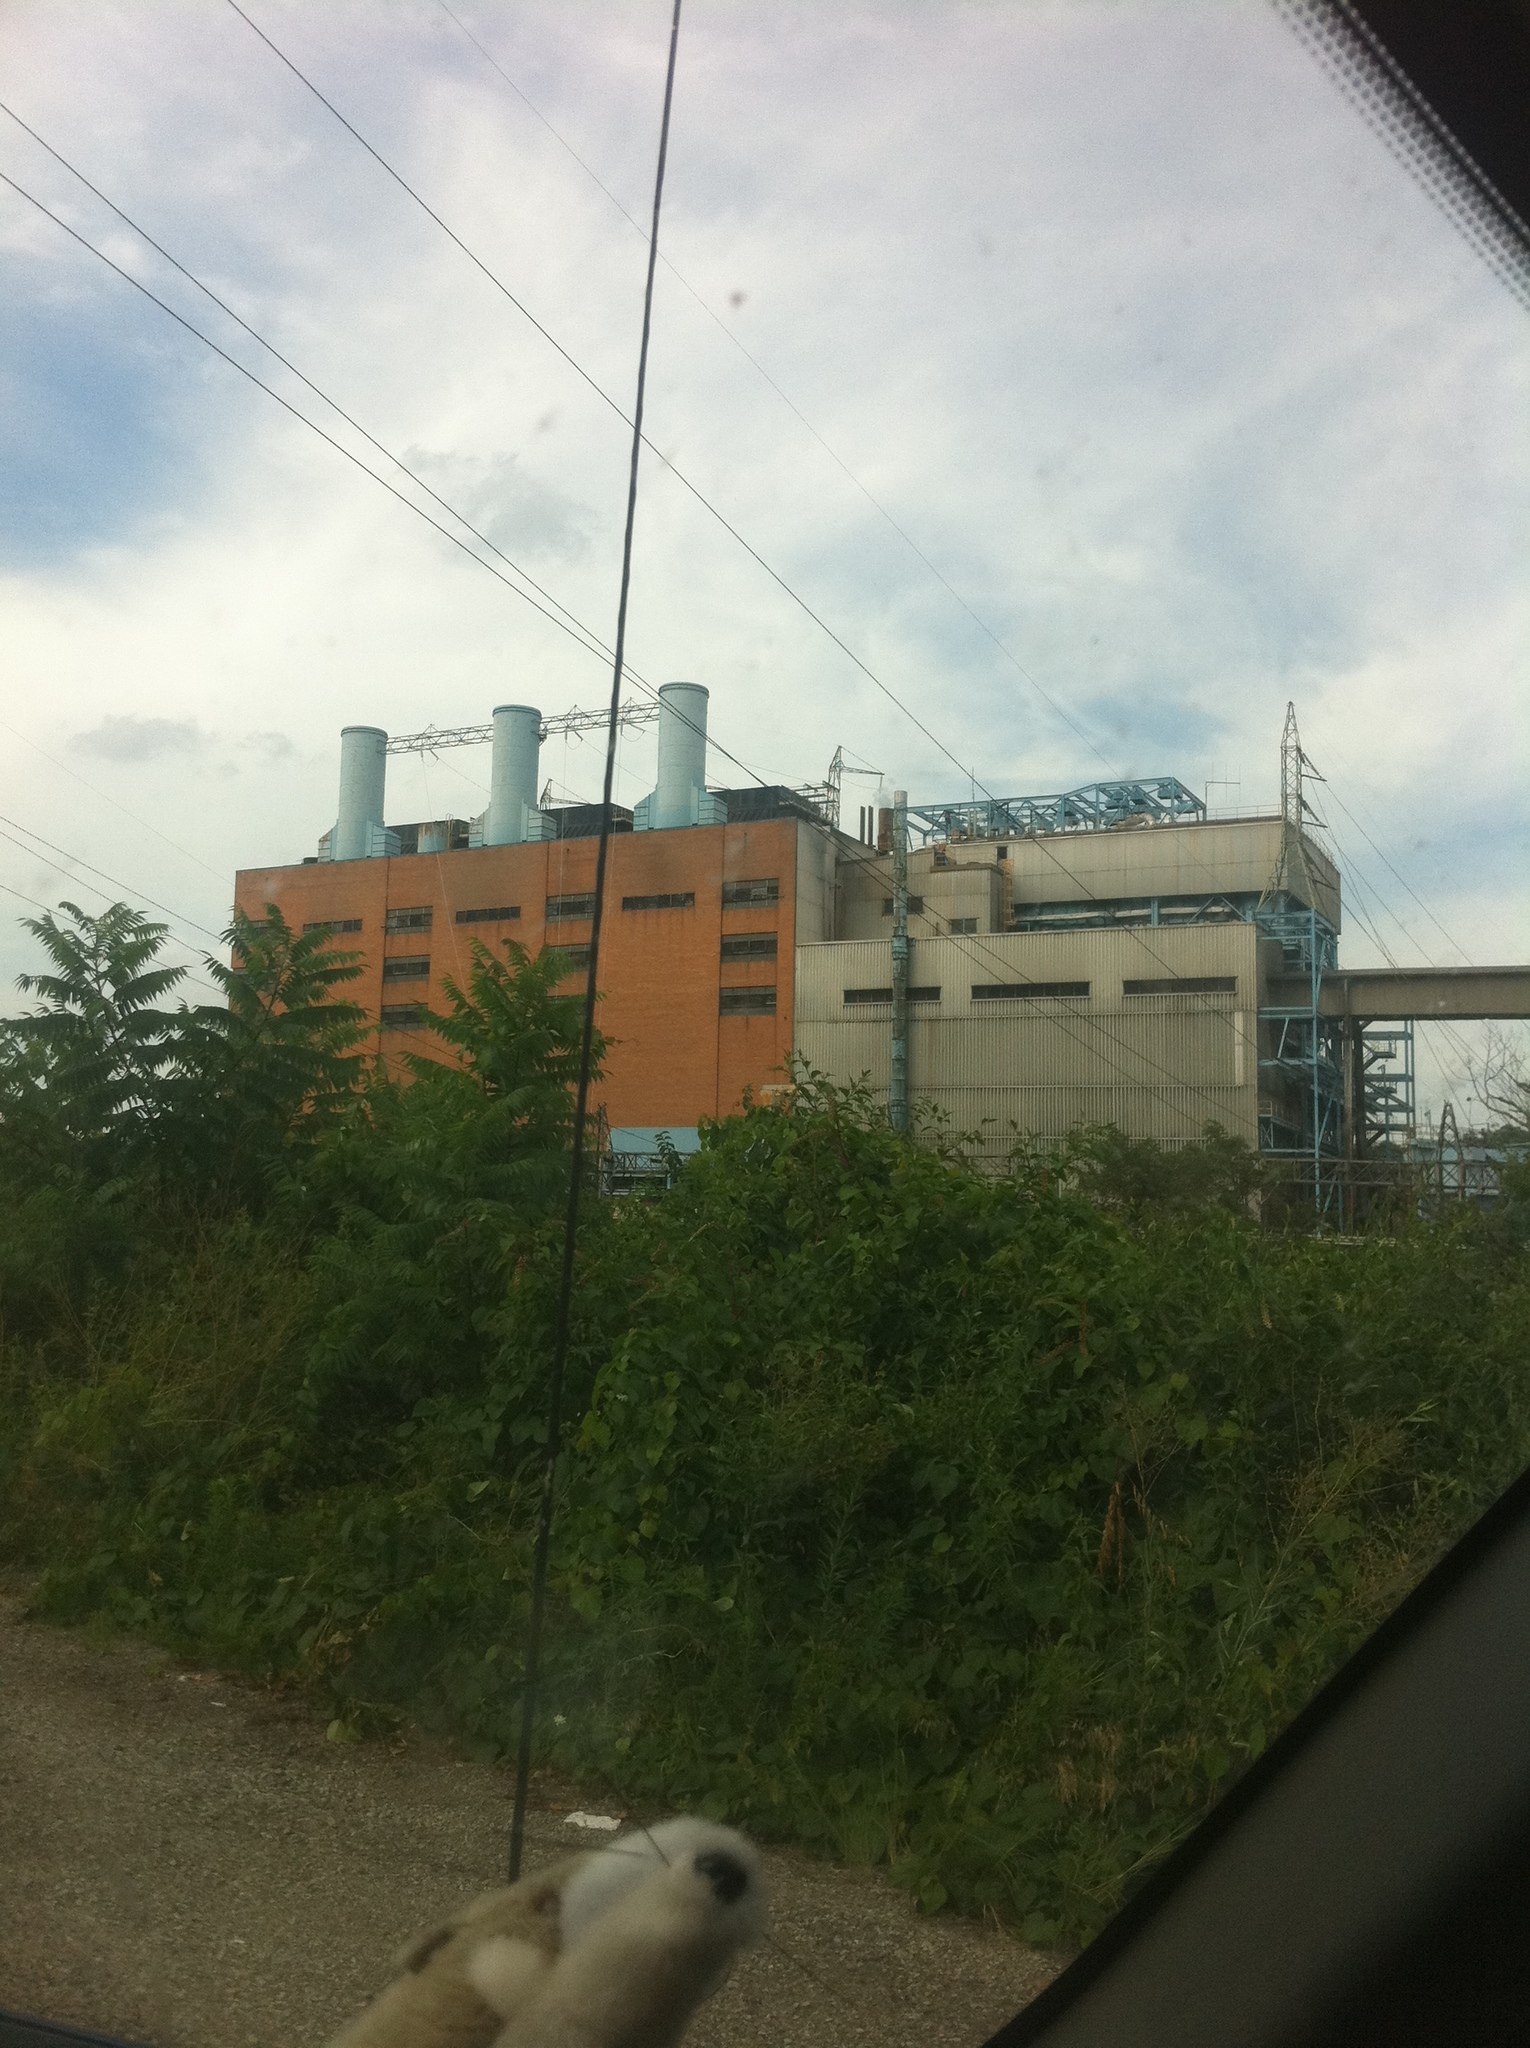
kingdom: Plantae
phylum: Tracheophyta
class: Magnoliopsida
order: Sapindales
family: Anacardiaceae
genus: Rhus
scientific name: Rhus typhina
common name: Staghorn sumac
